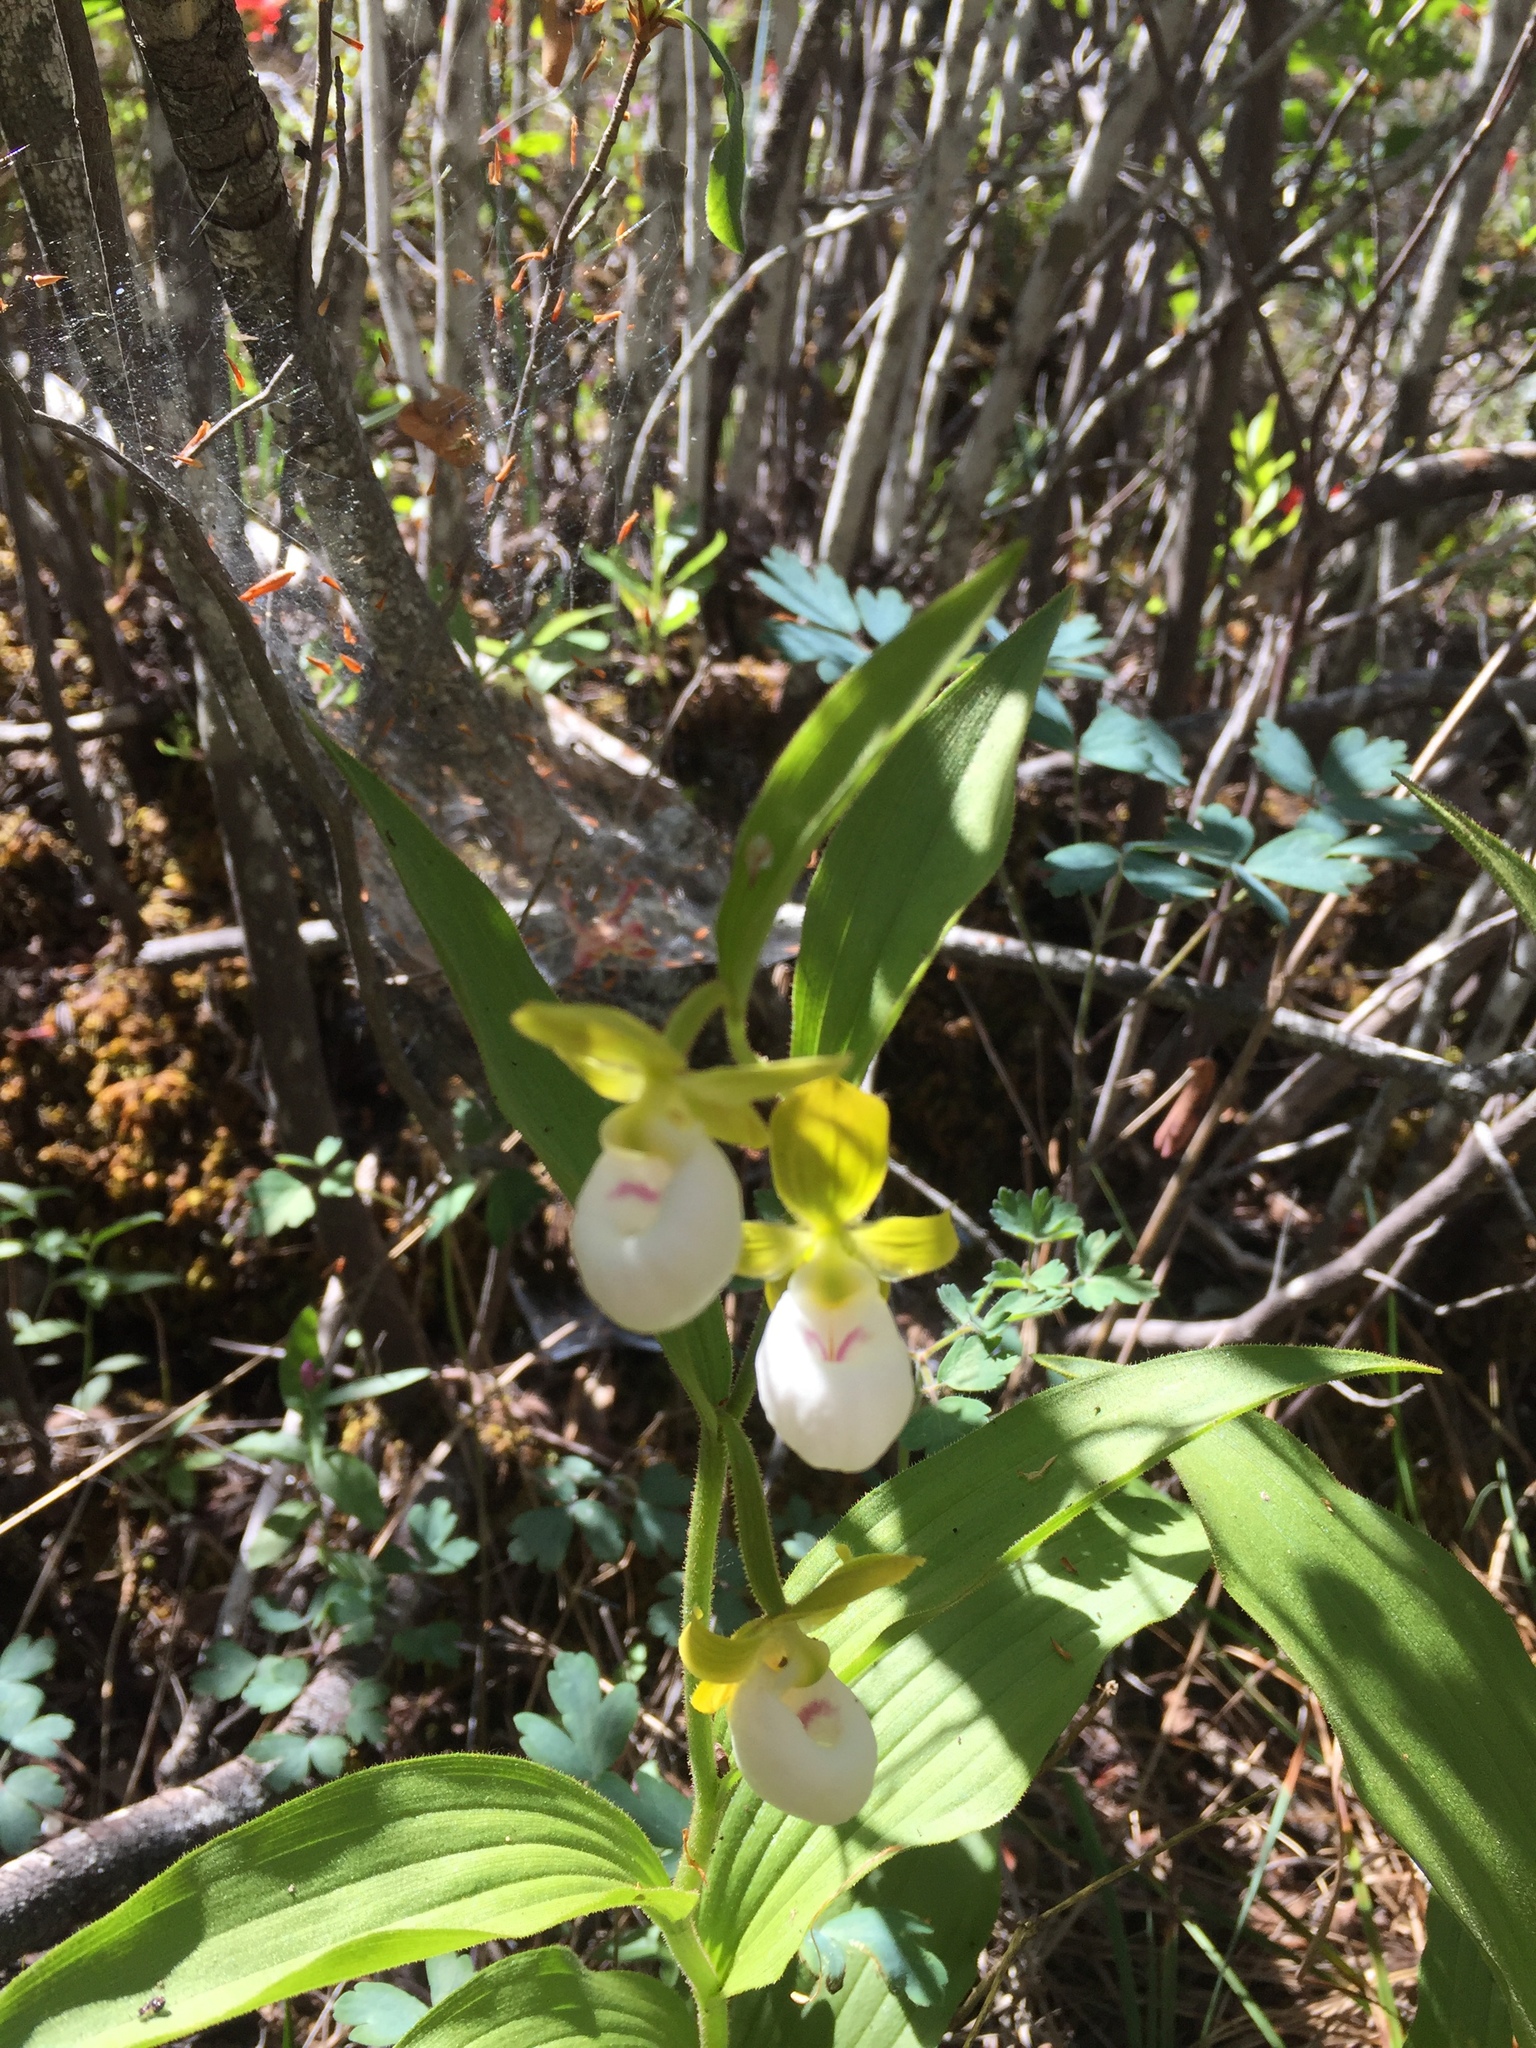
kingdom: Plantae
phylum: Tracheophyta
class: Liliopsida
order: Asparagales
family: Orchidaceae
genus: Cypripedium
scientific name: Cypripedium californicum
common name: California lady's slipper
